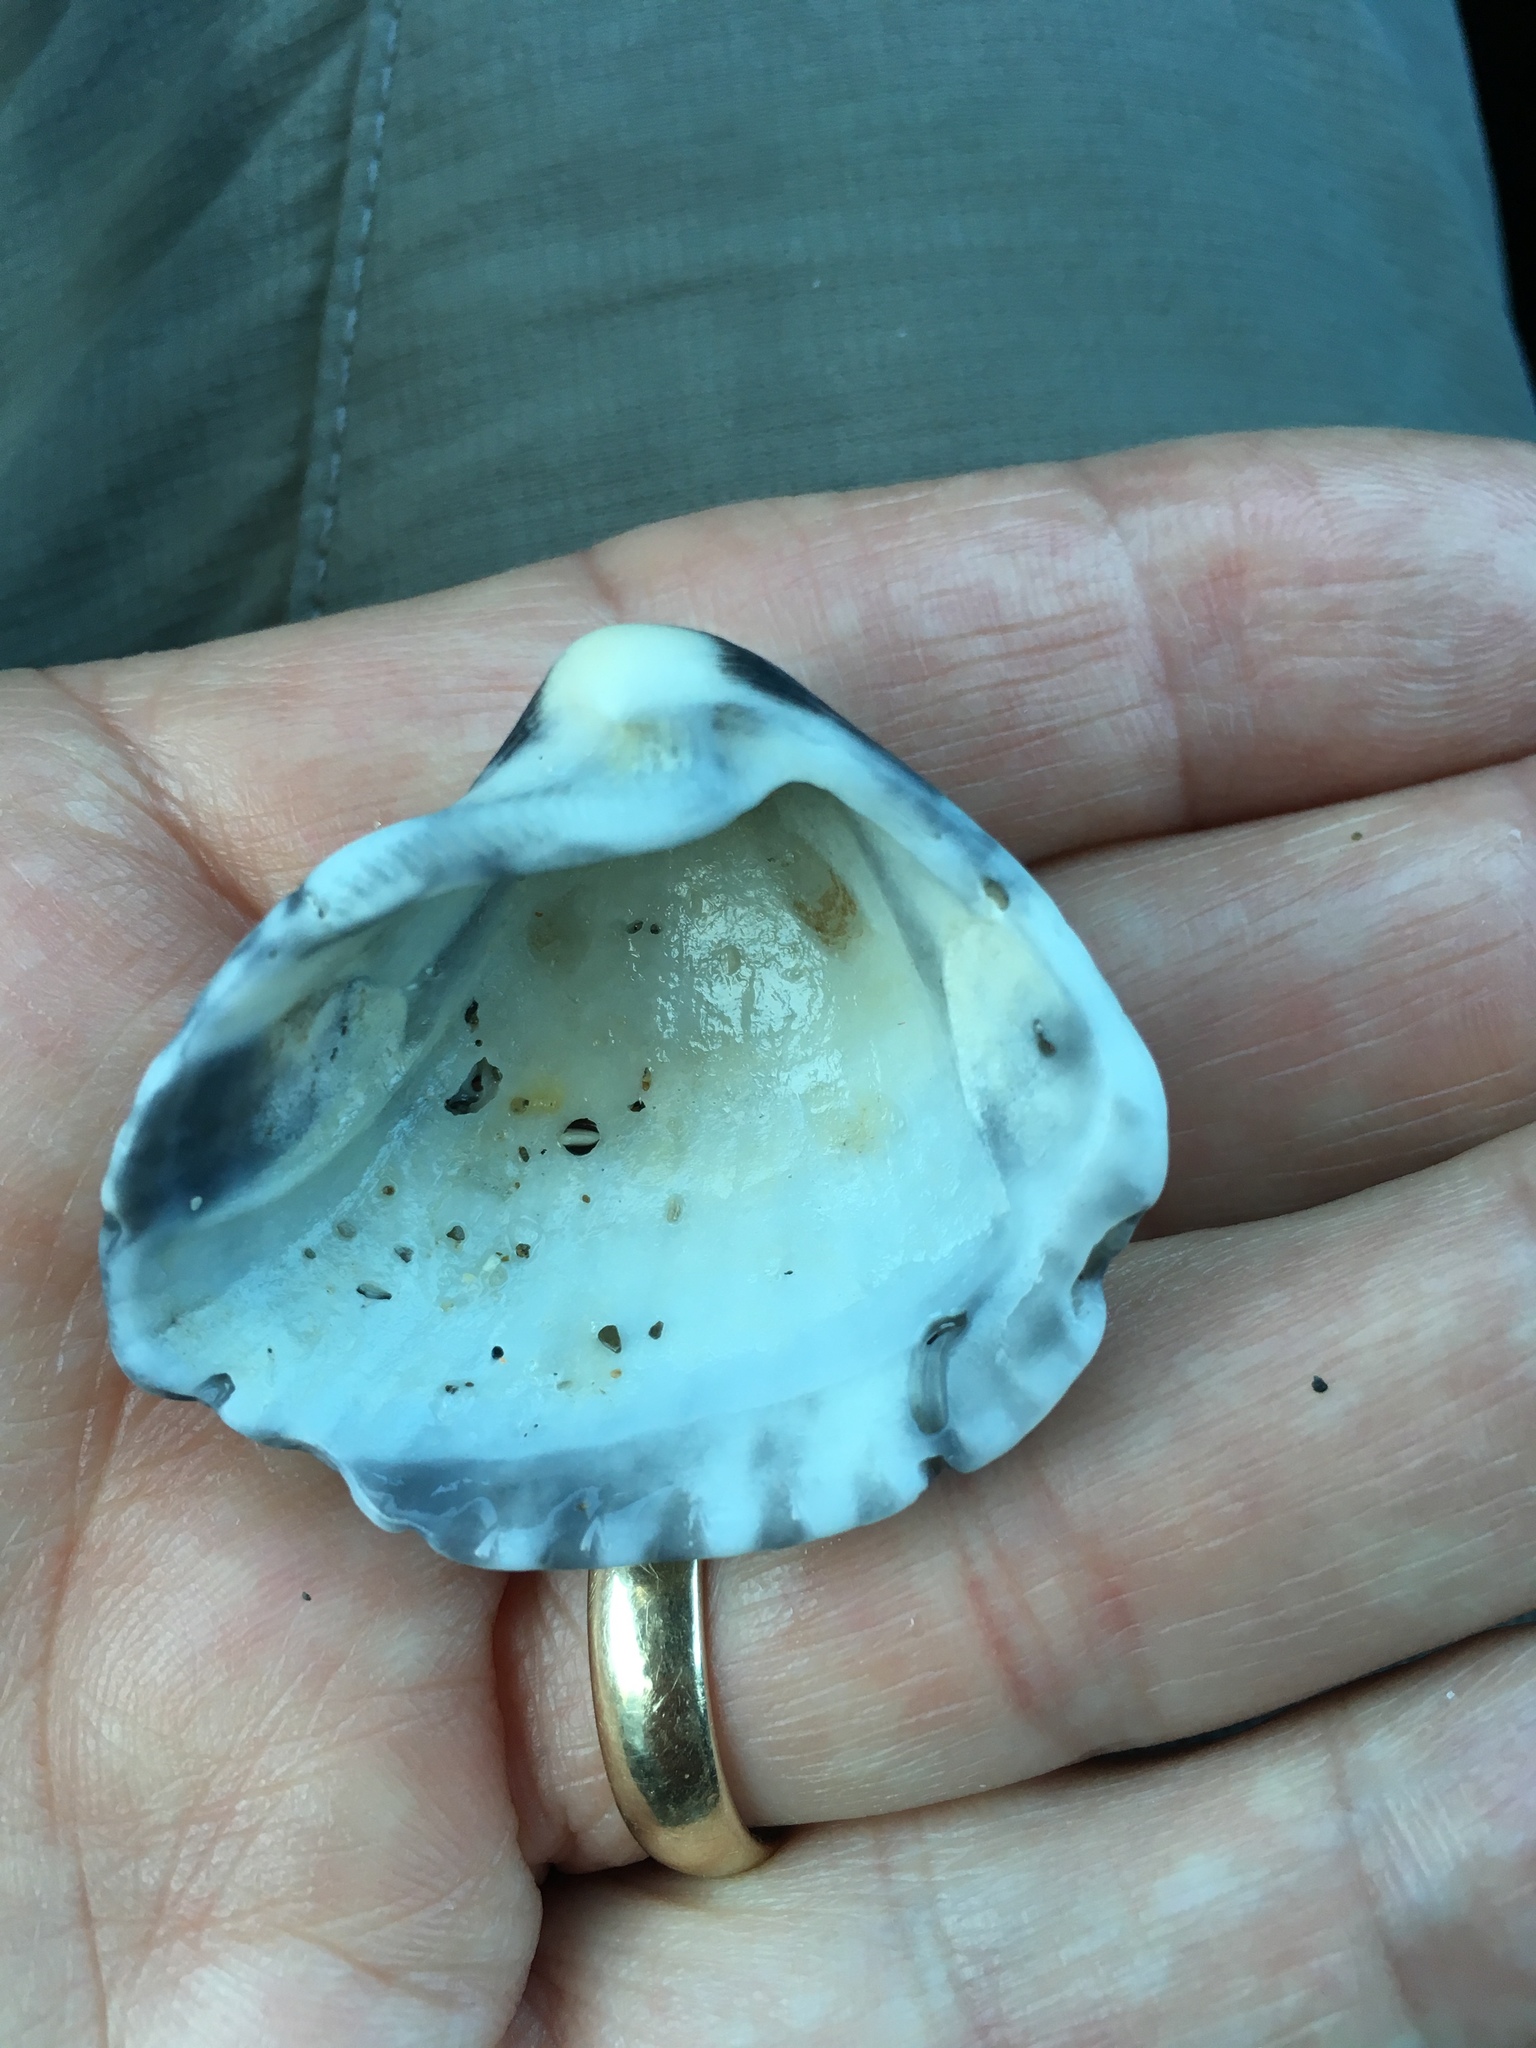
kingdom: Animalia
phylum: Mollusca
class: Bivalvia
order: Arcida
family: Noetiidae
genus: Noetia
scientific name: Noetia ponderosa
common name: Ponderous ark
